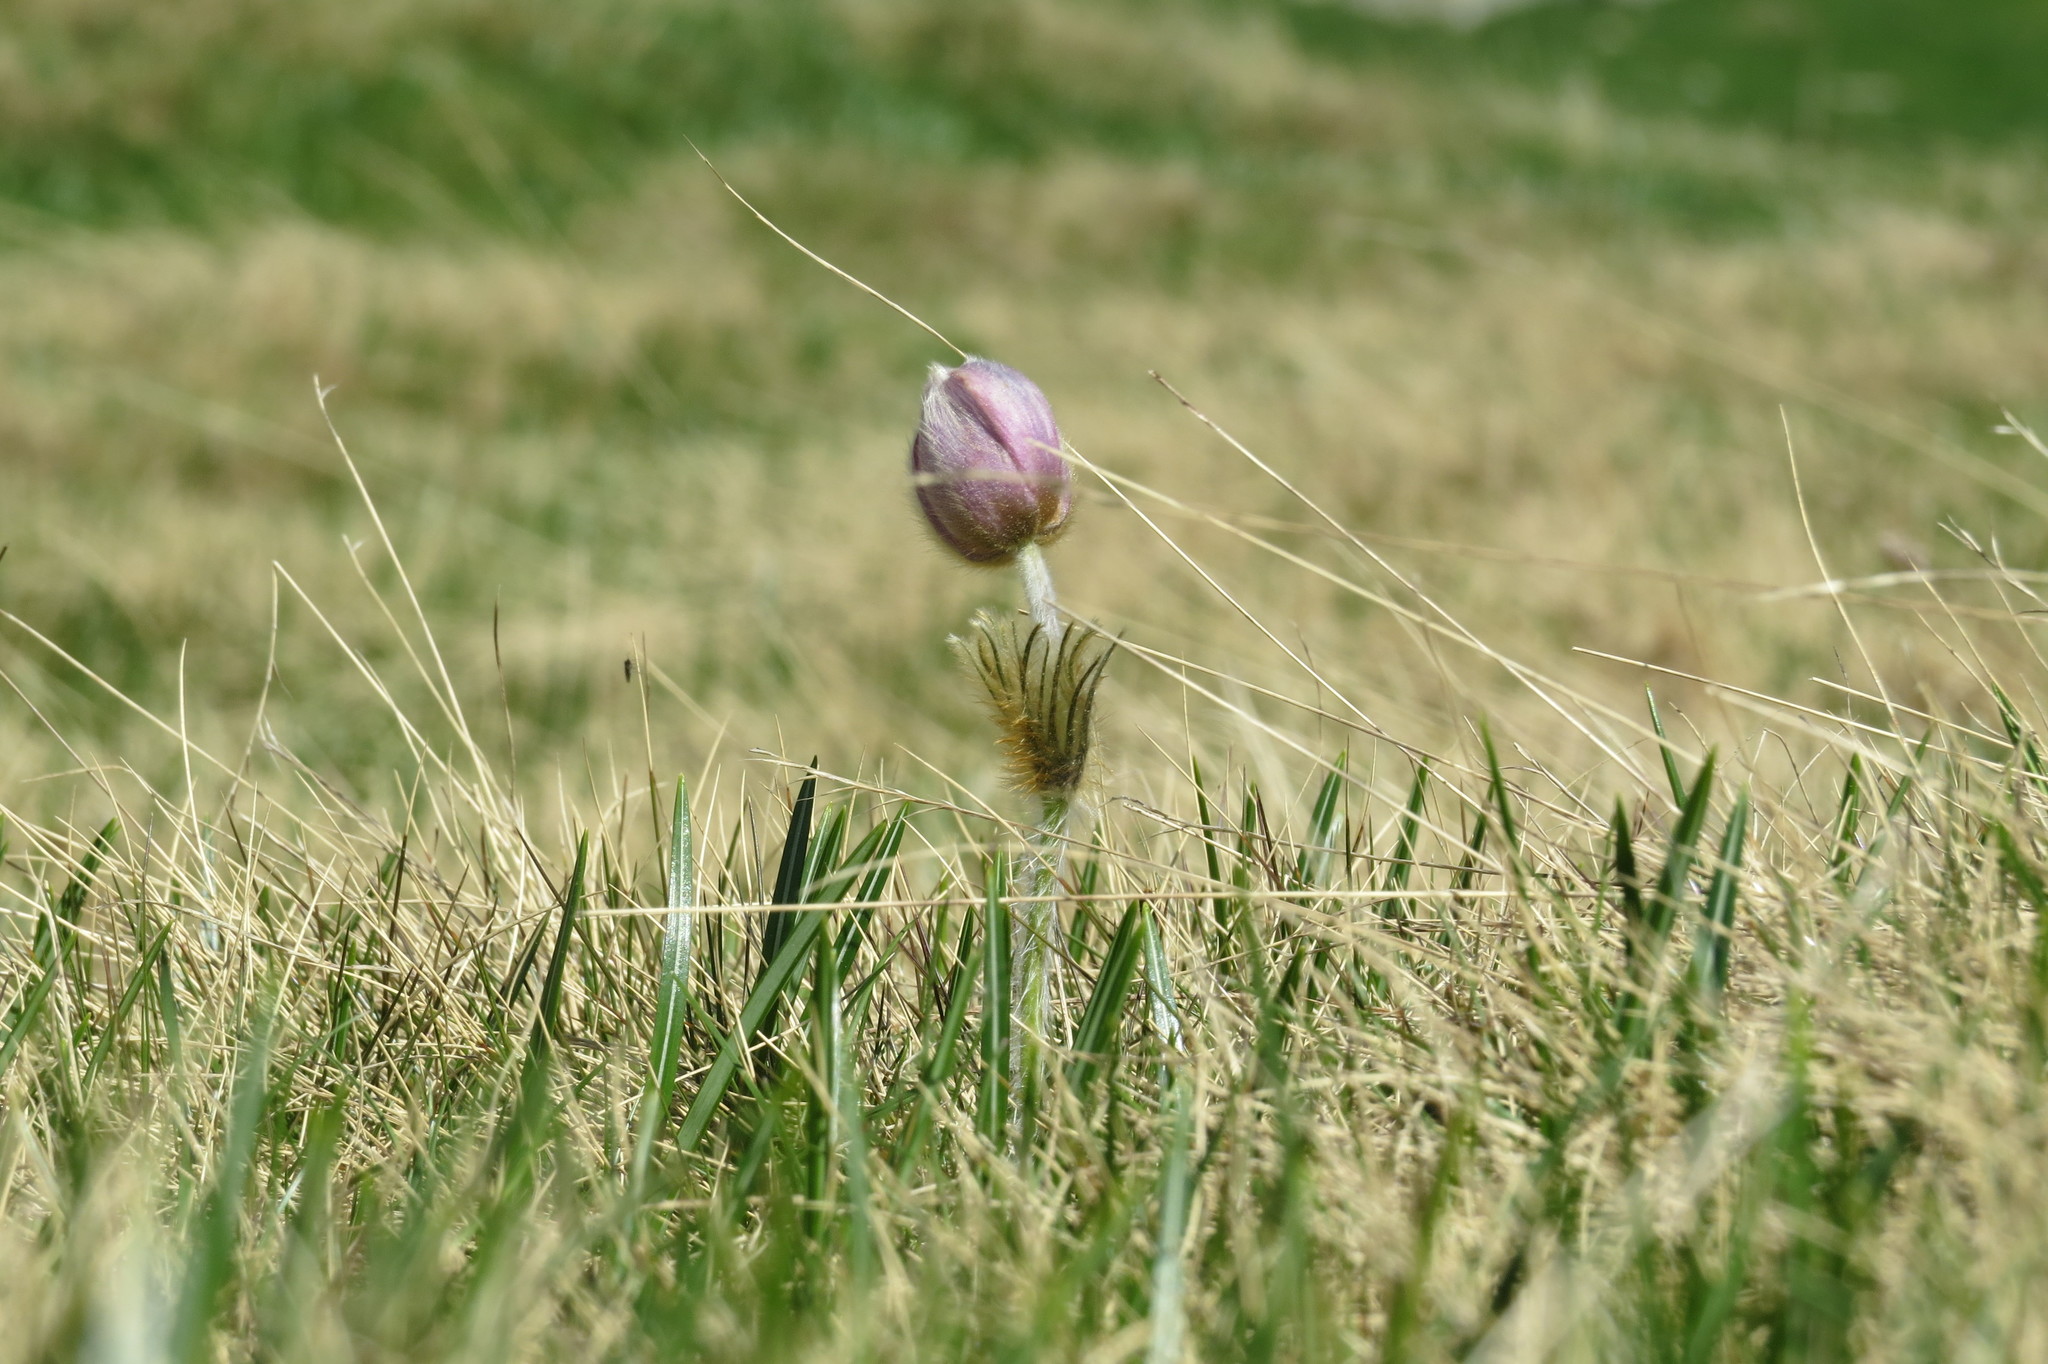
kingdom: Plantae
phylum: Tracheophyta
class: Magnoliopsida
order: Ranunculales
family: Ranunculaceae
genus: Pulsatilla
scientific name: Pulsatilla vernalis
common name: Spring pasque flower
